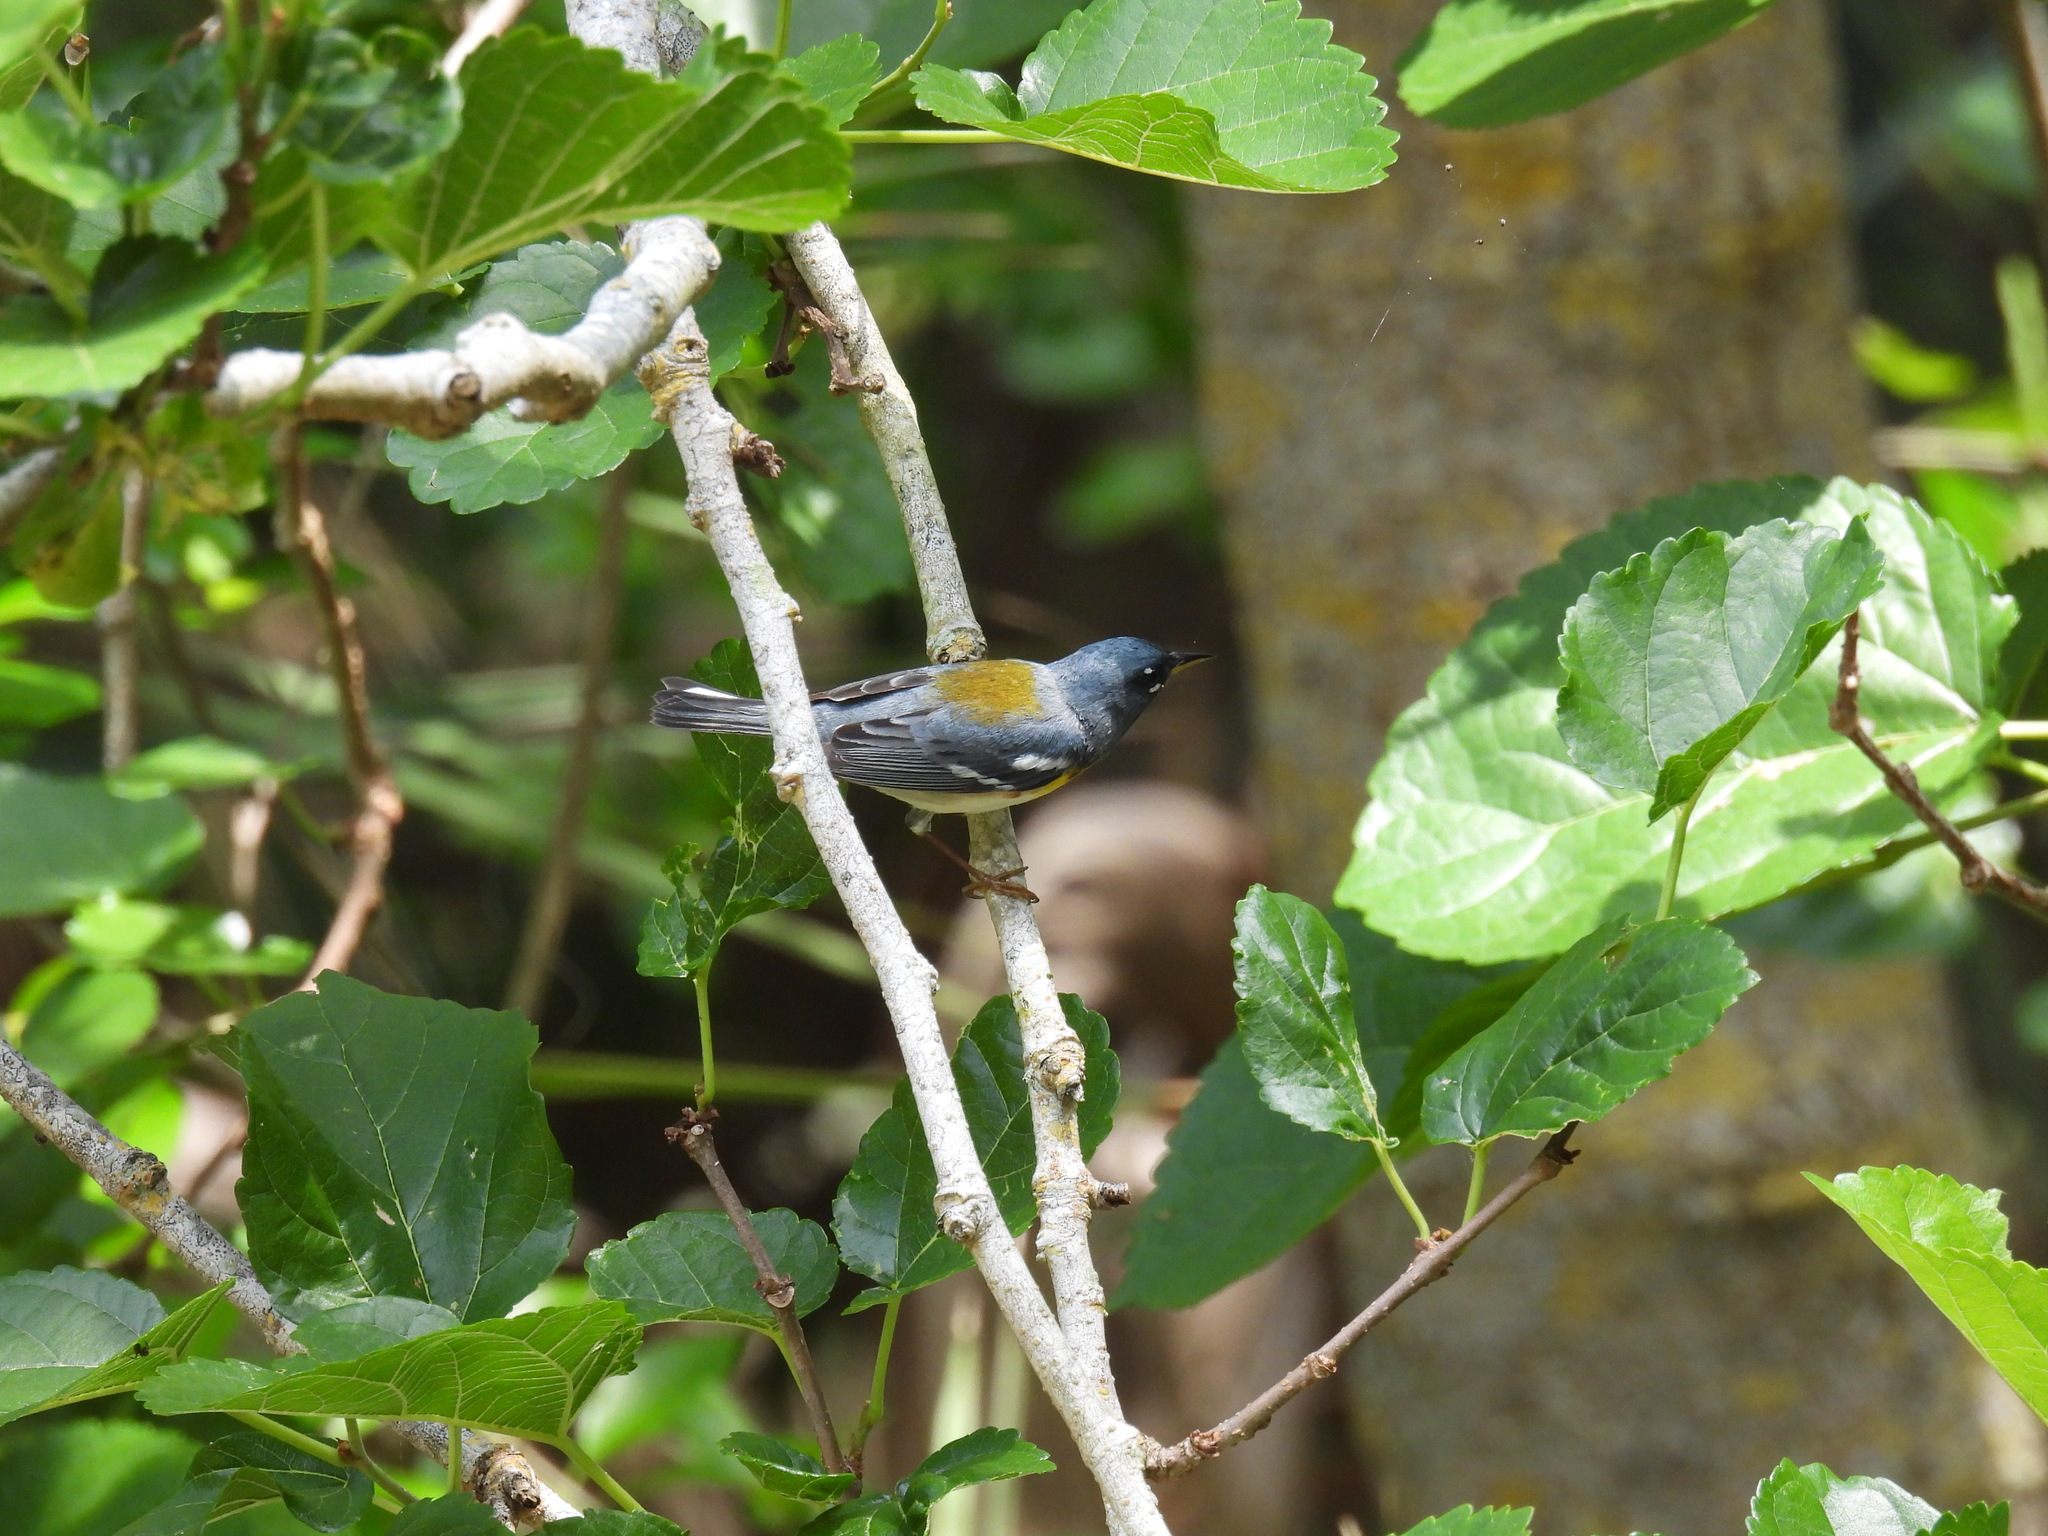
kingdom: Animalia
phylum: Chordata
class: Aves
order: Passeriformes
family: Parulidae
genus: Setophaga
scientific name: Setophaga americana
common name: Northern parula
